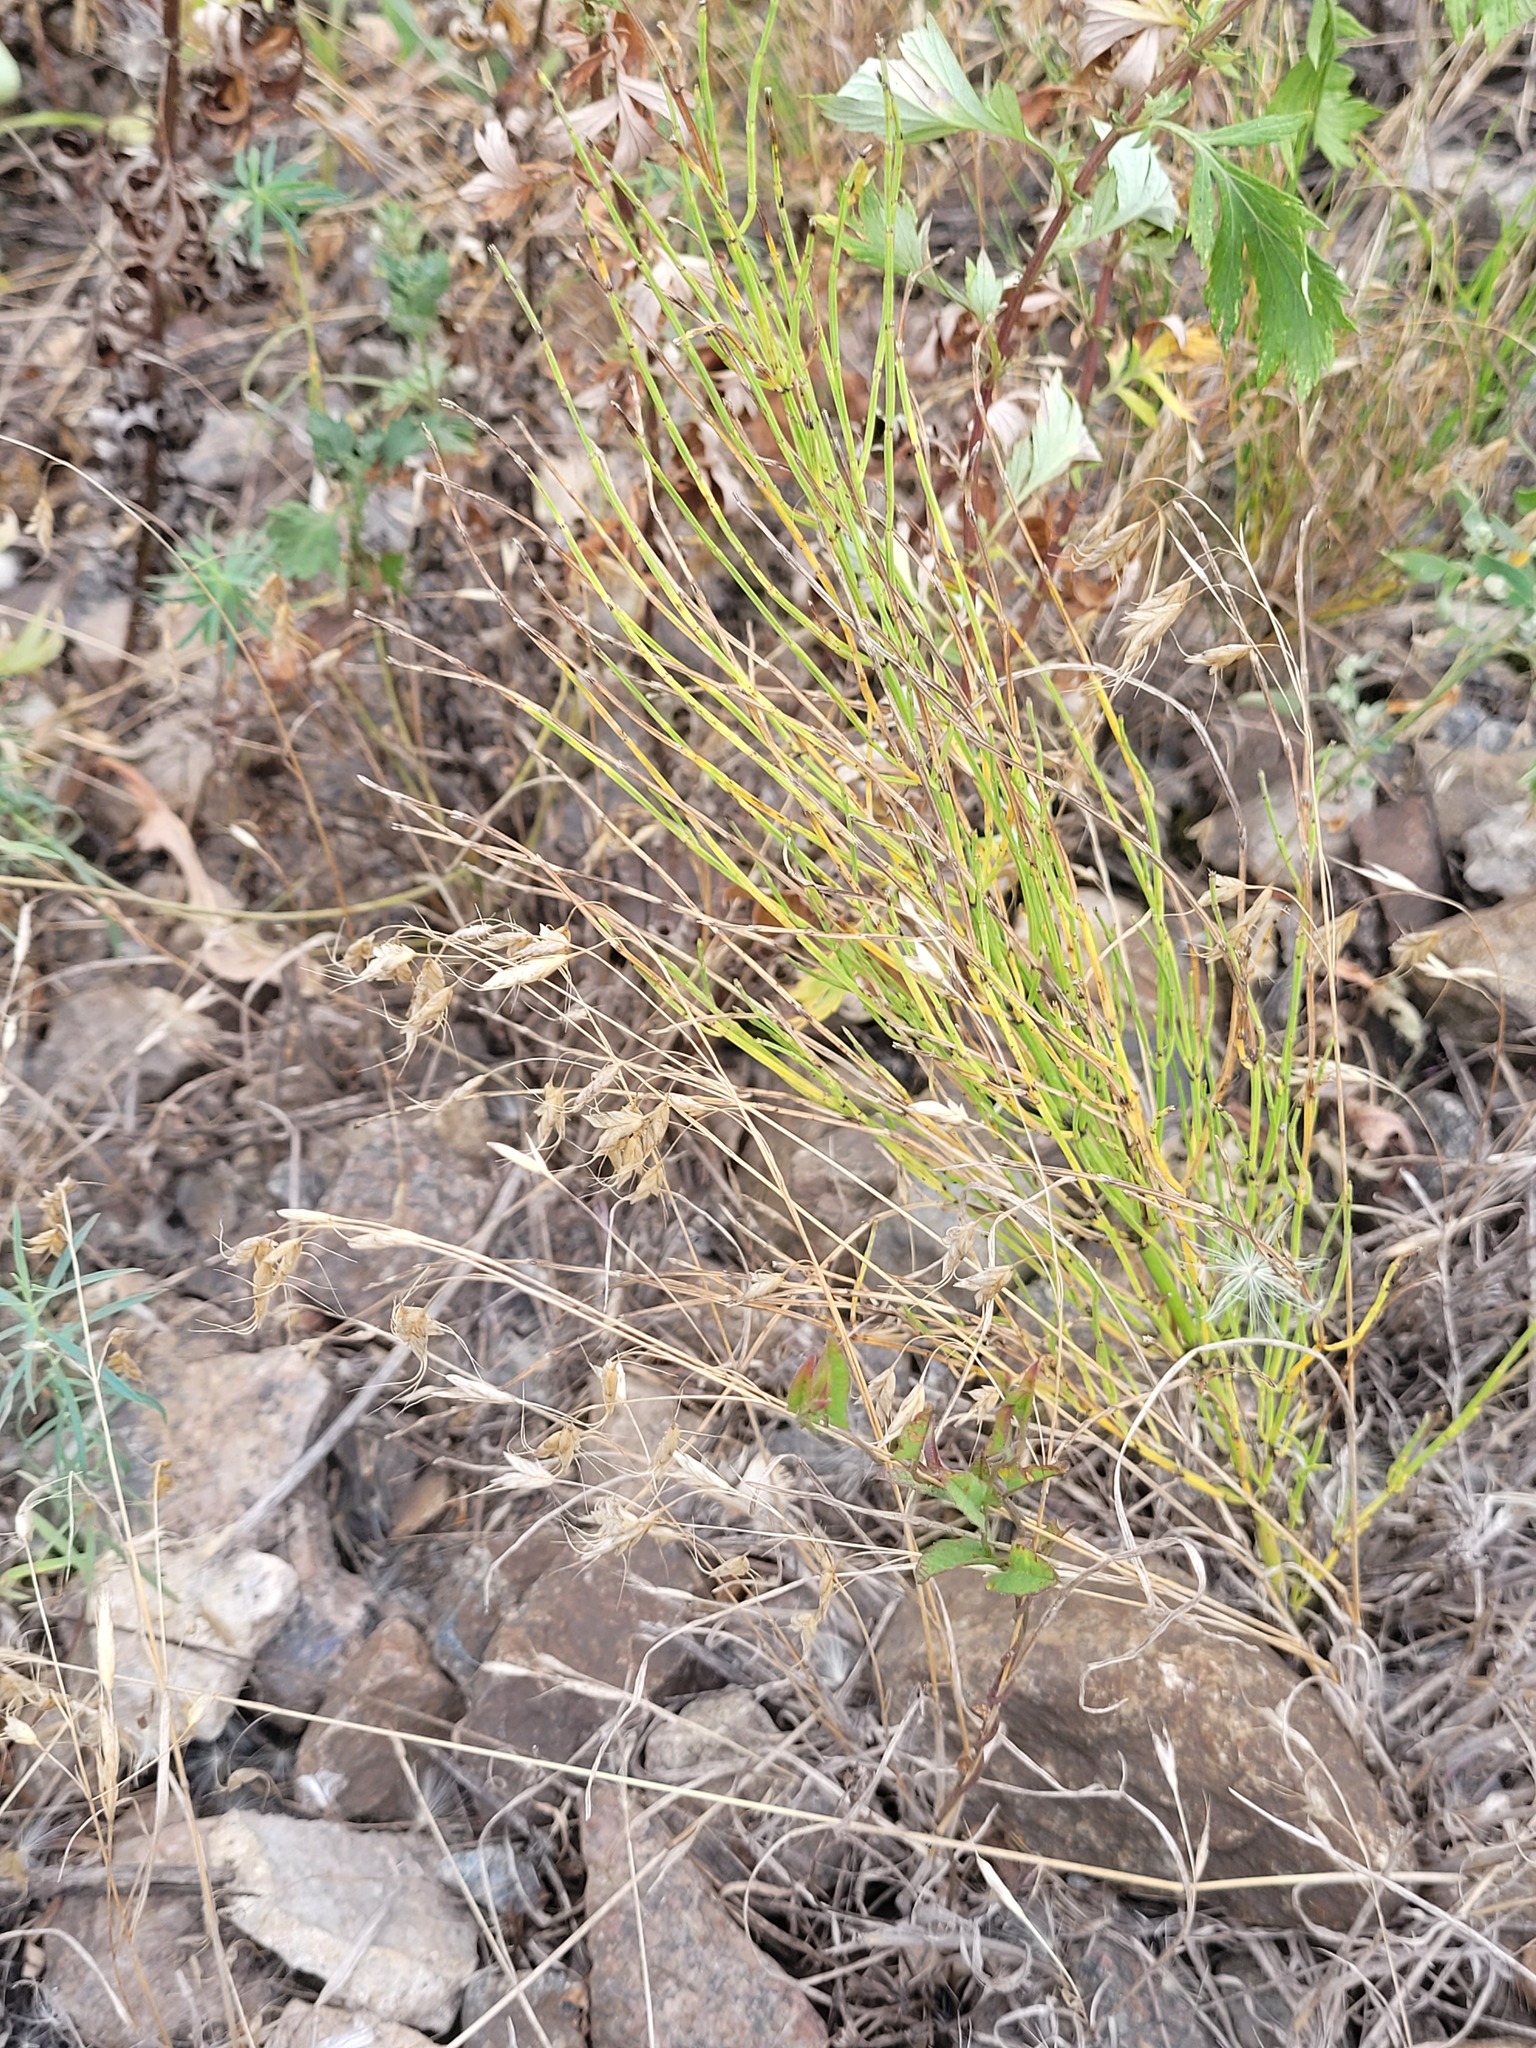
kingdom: Plantae
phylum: Tracheophyta
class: Polypodiopsida
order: Equisetales
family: Equisetaceae
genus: Equisetum
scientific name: Equisetum arvense
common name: Field horsetail
